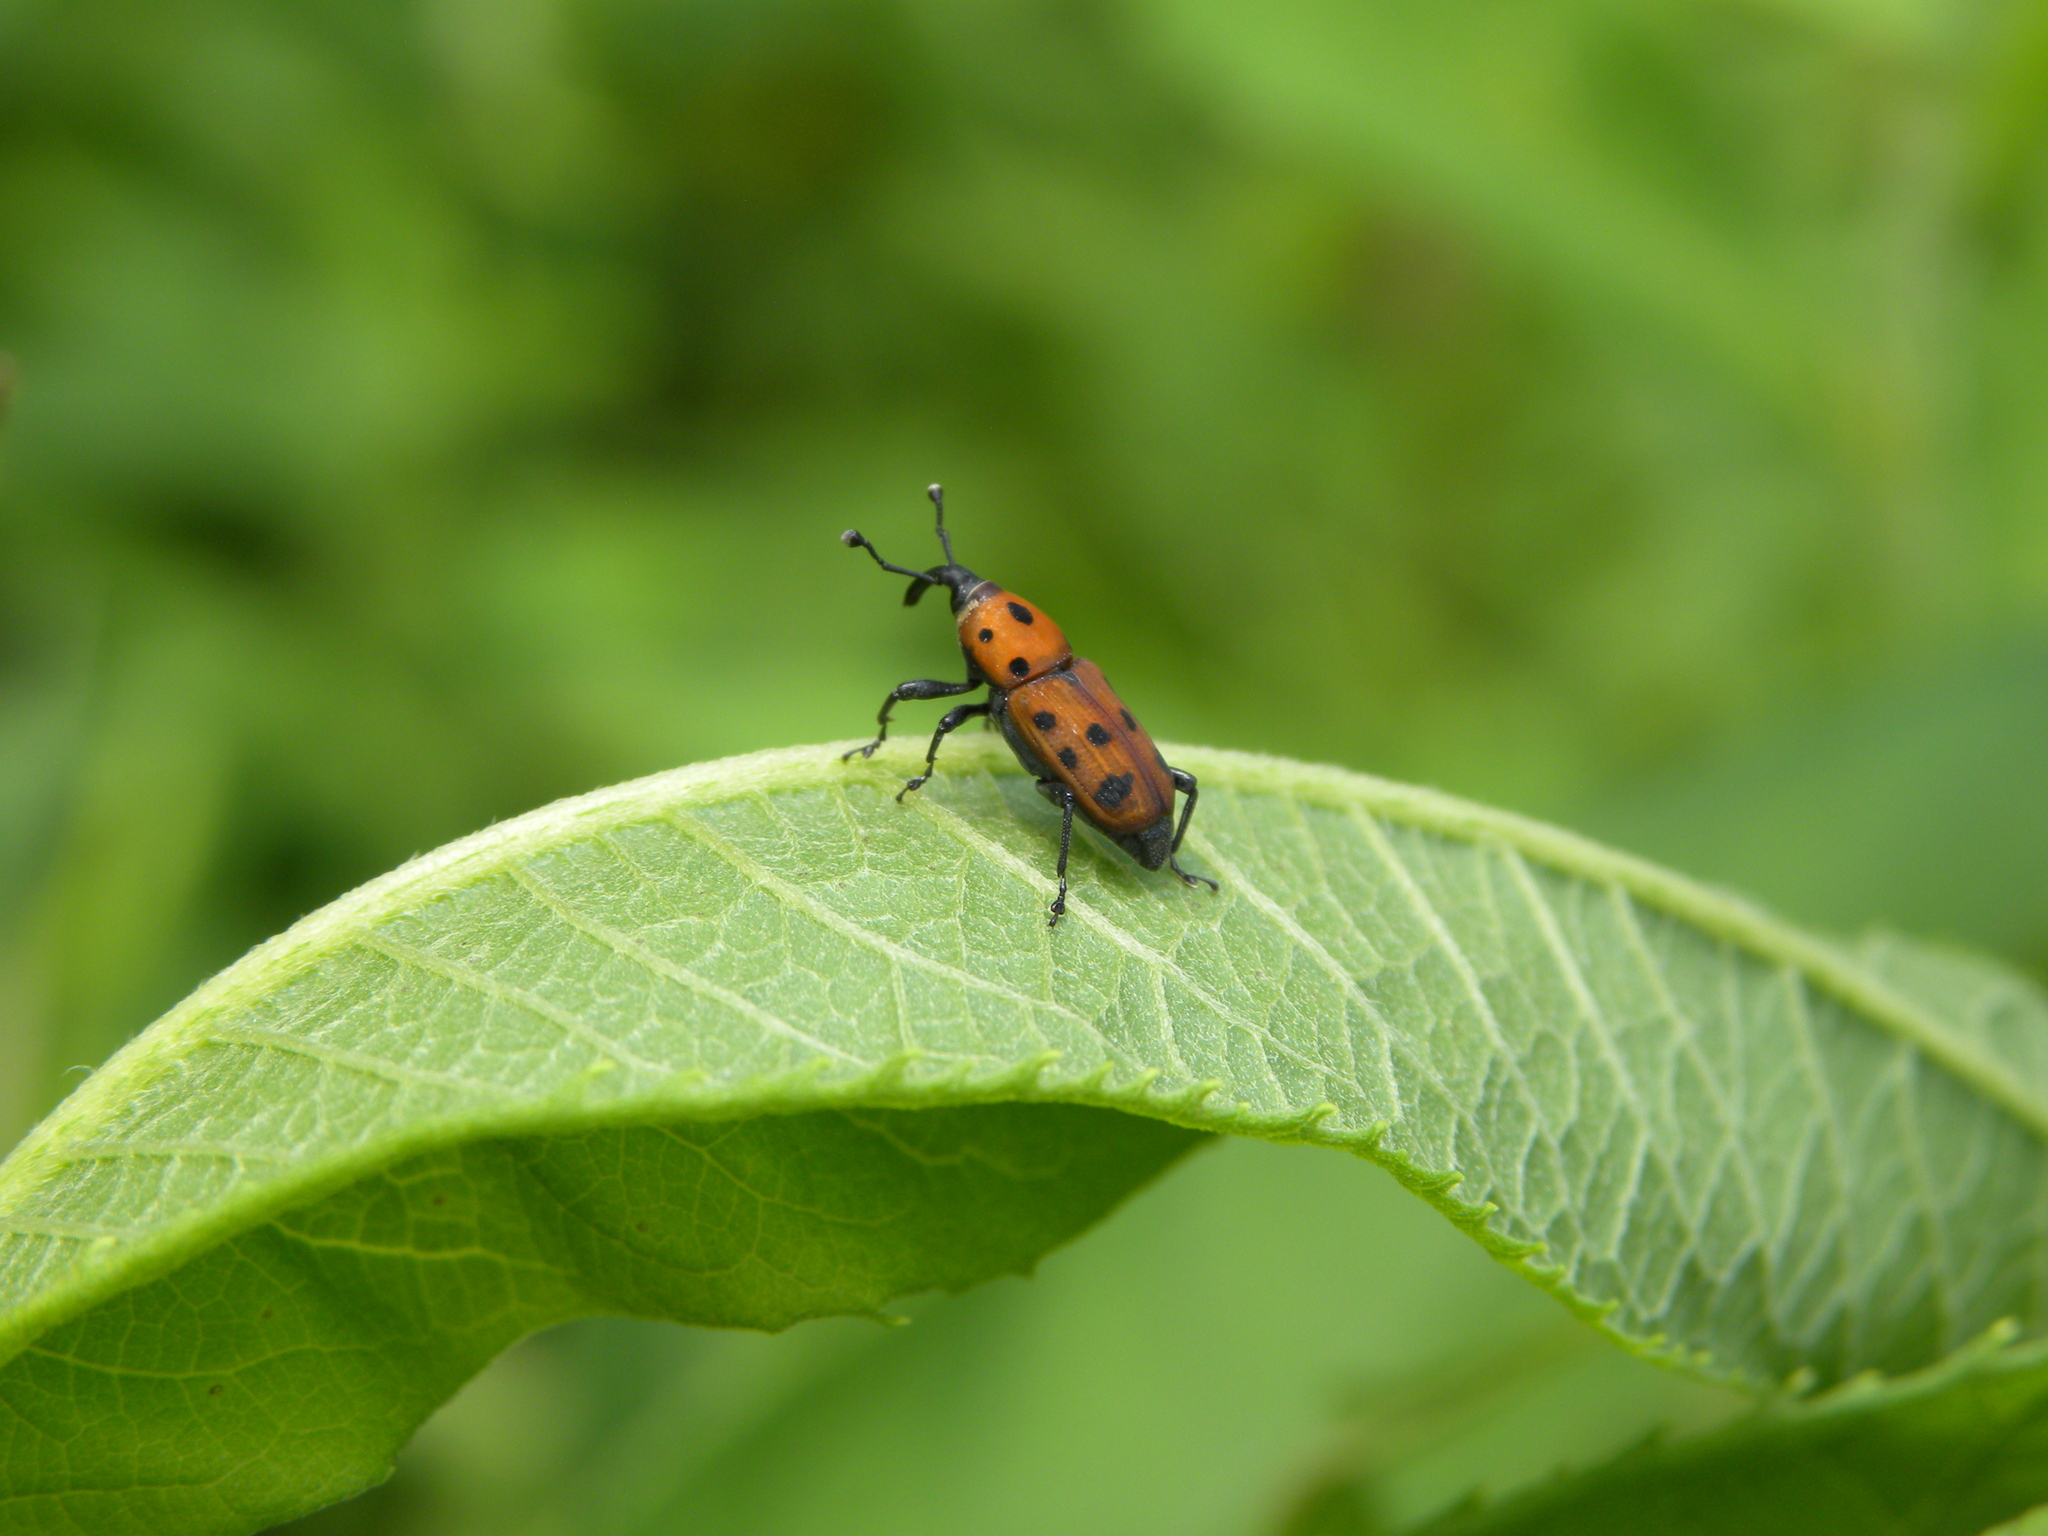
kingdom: Animalia
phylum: Arthropoda
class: Insecta
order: Coleoptera
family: Dryophthoridae
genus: Rhodobaenus
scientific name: Rhodobaenus tredecimpunctatus
